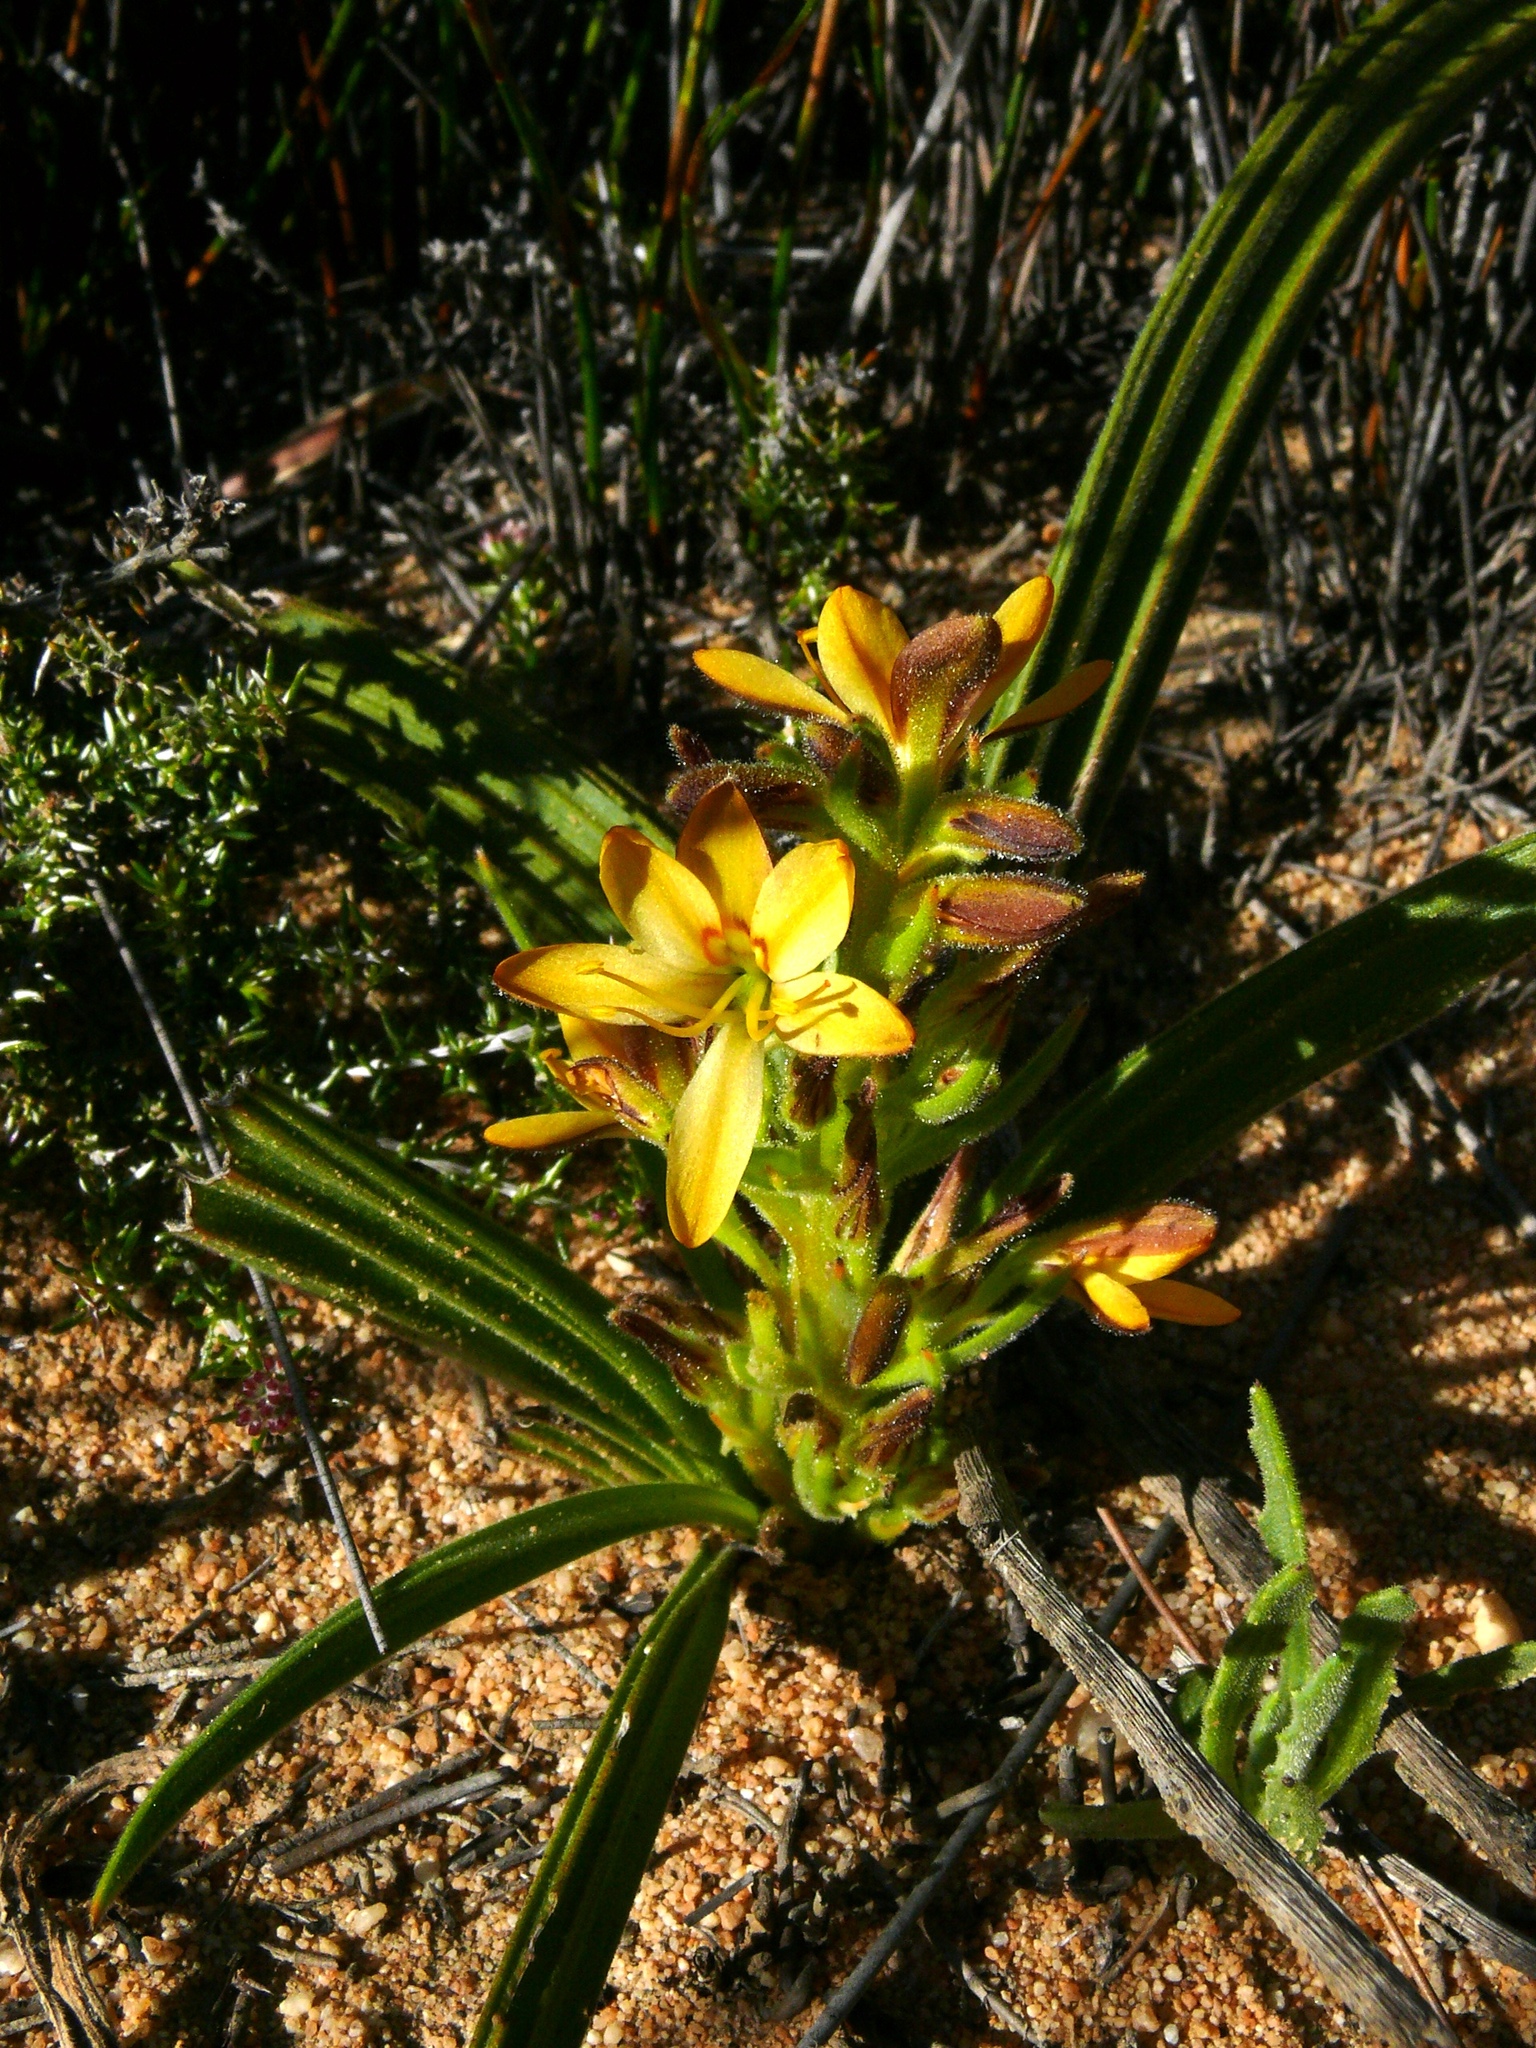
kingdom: Plantae
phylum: Tracheophyta
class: Liliopsida
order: Commelinales
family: Haemodoraceae
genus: Wachendorfia
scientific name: Wachendorfia multiflora
